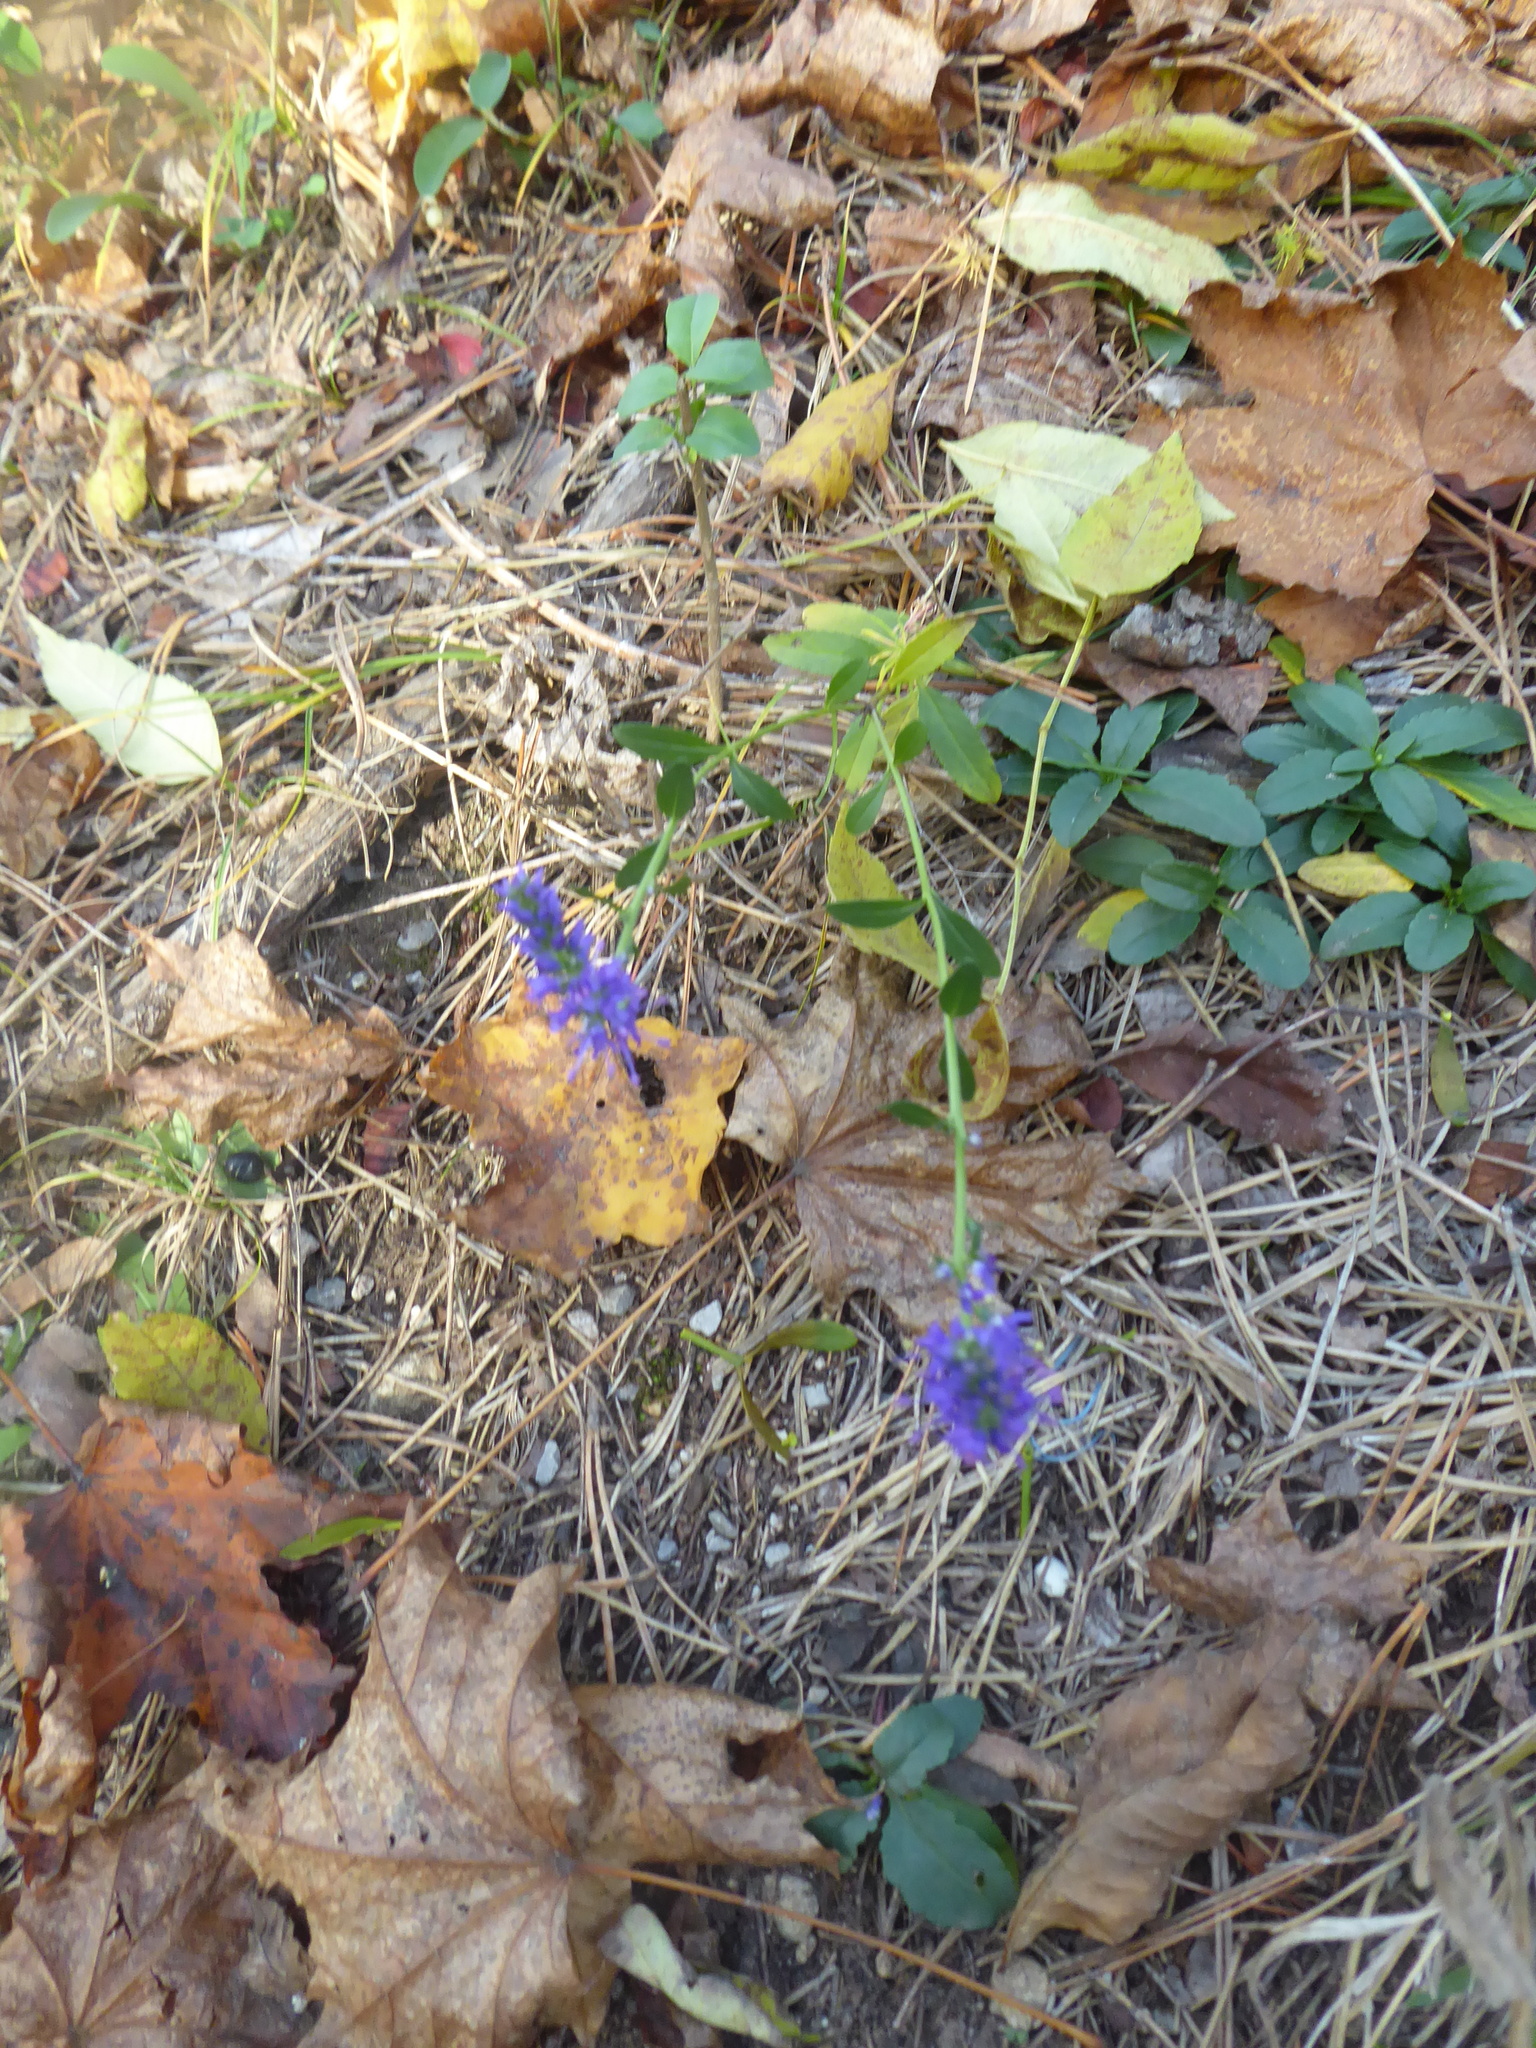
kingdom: Plantae
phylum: Tracheophyta
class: Magnoliopsida
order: Lamiales
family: Plantaginaceae
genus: Veronica
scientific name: Veronica spicata
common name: Spiked speedwell
